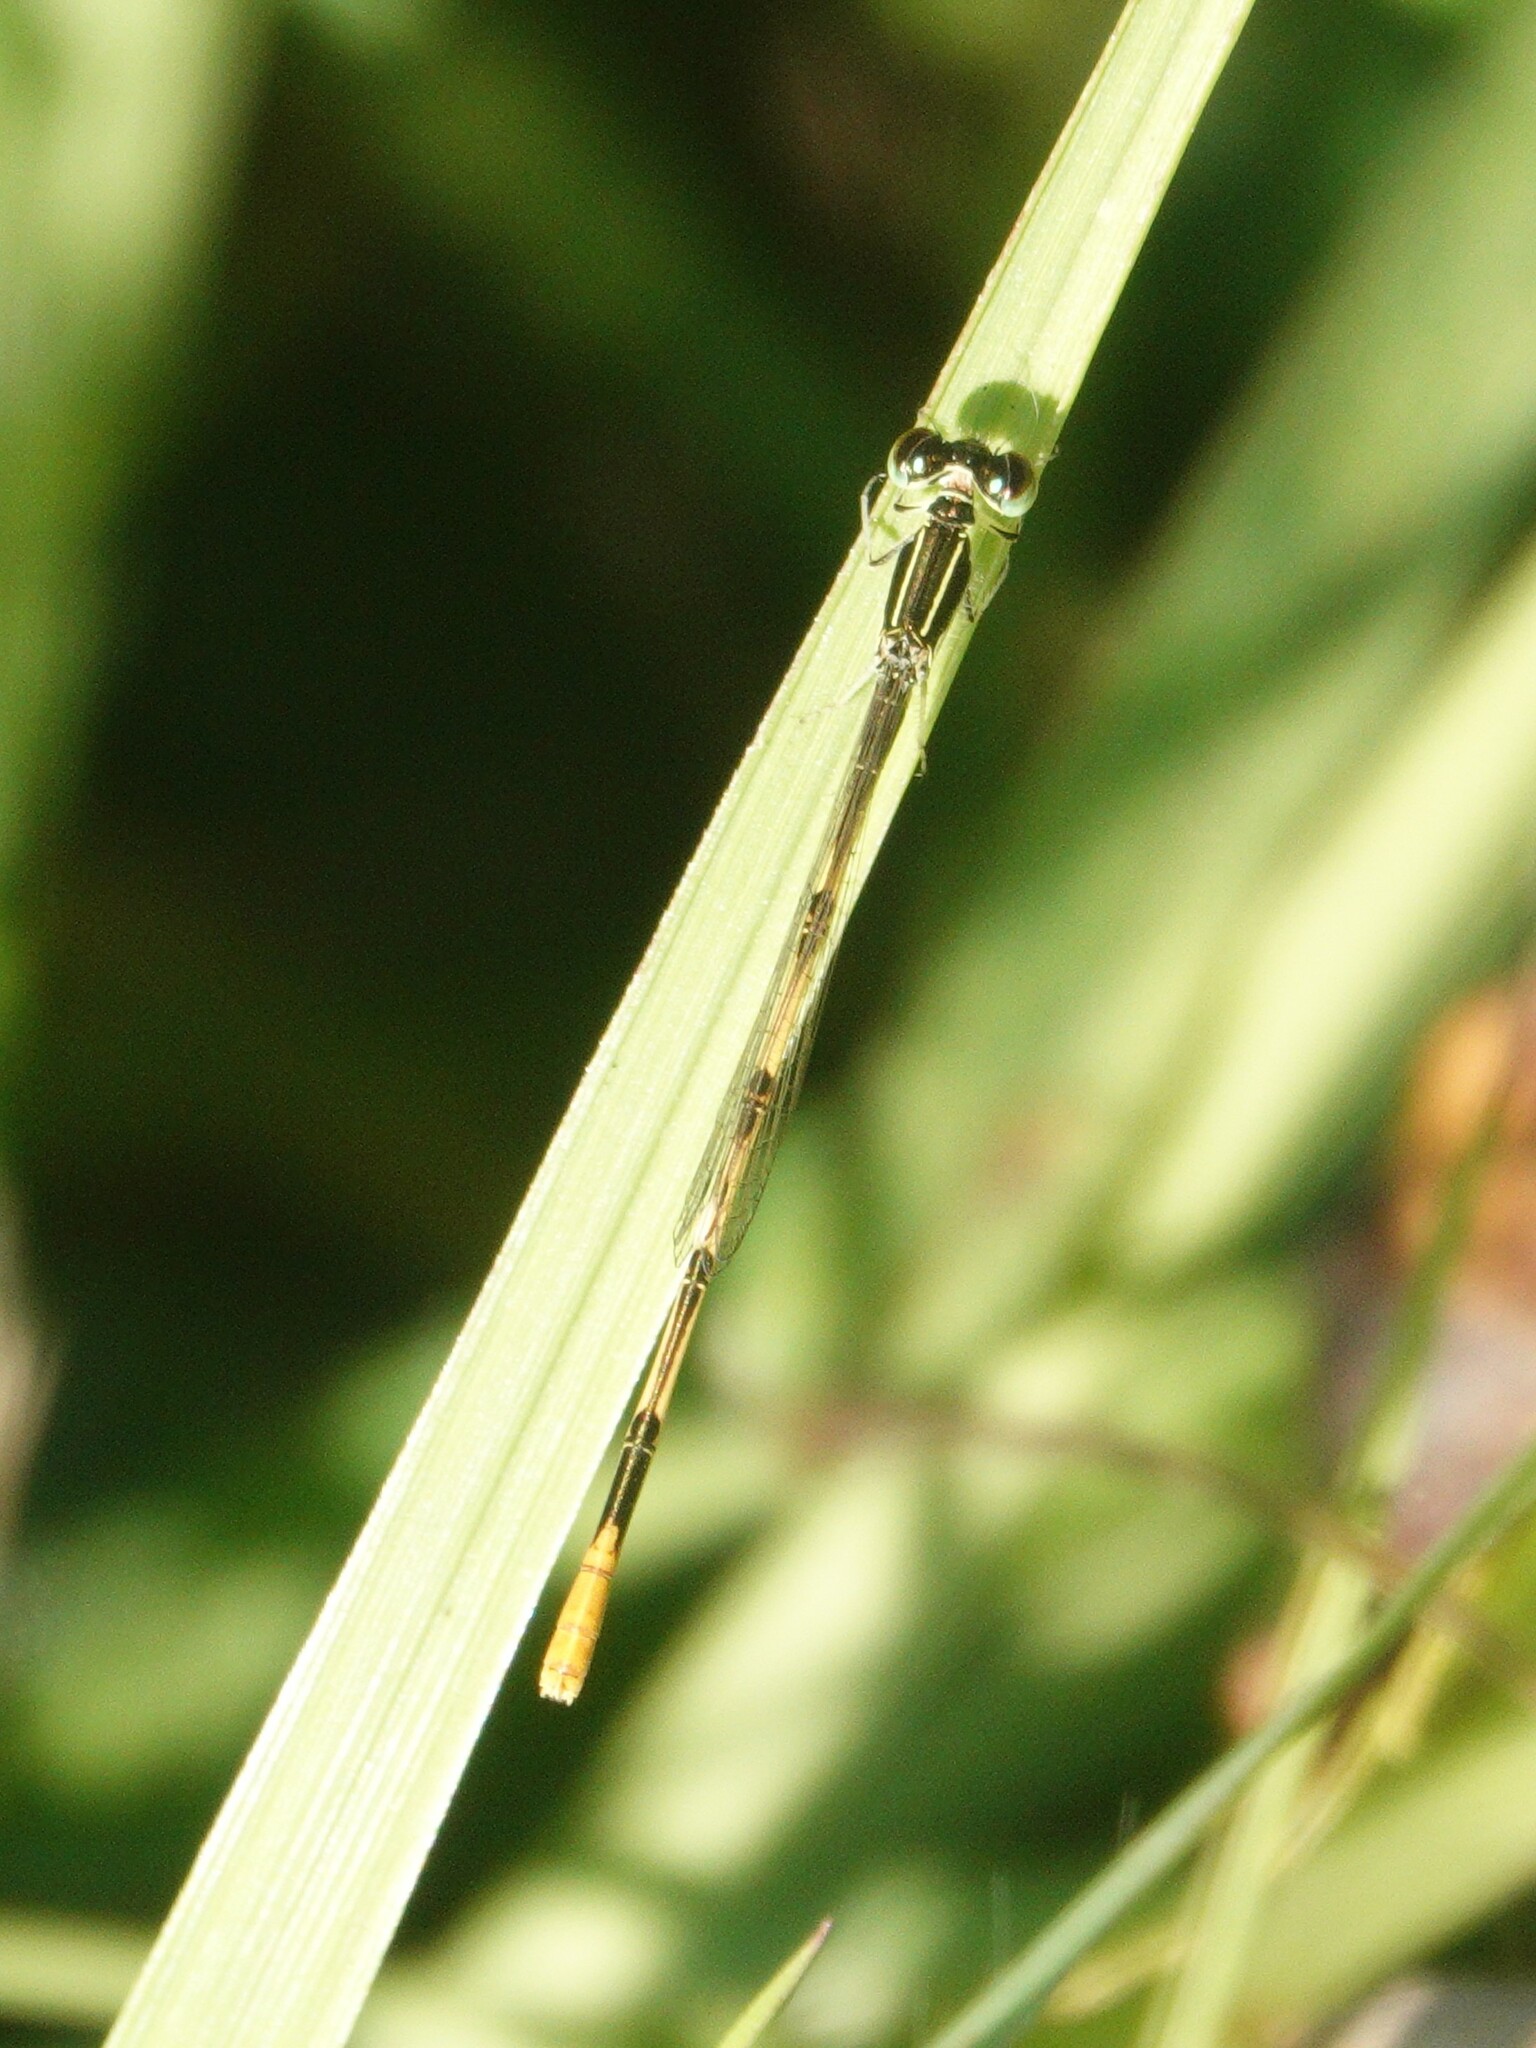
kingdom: Animalia
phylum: Arthropoda
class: Insecta
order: Odonata
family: Coenagrionidae
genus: Ischnura
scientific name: Ischnura hastata
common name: Citrine forktail
